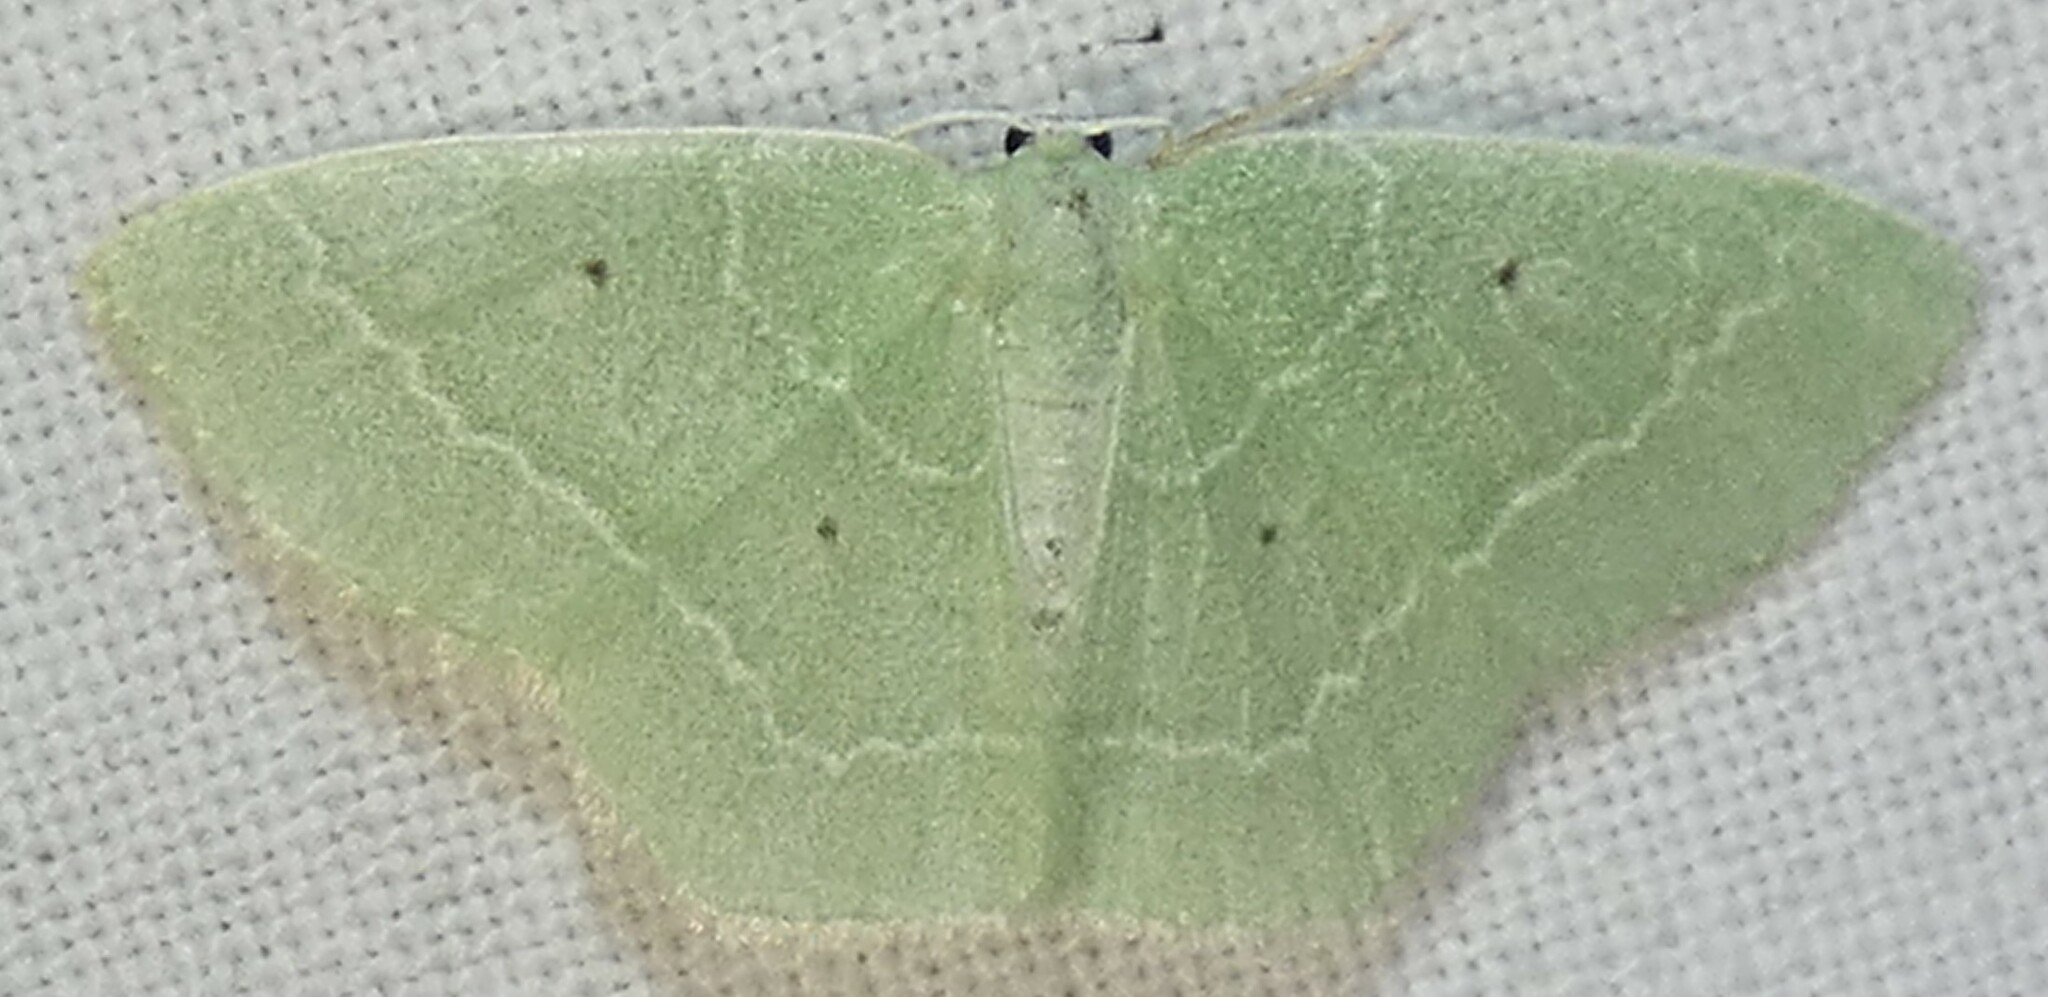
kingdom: Animalia
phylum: Arthropoda
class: Insecta
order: Lepidoptera
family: Geometridae
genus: Nemoria
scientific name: Nemoria elfa
